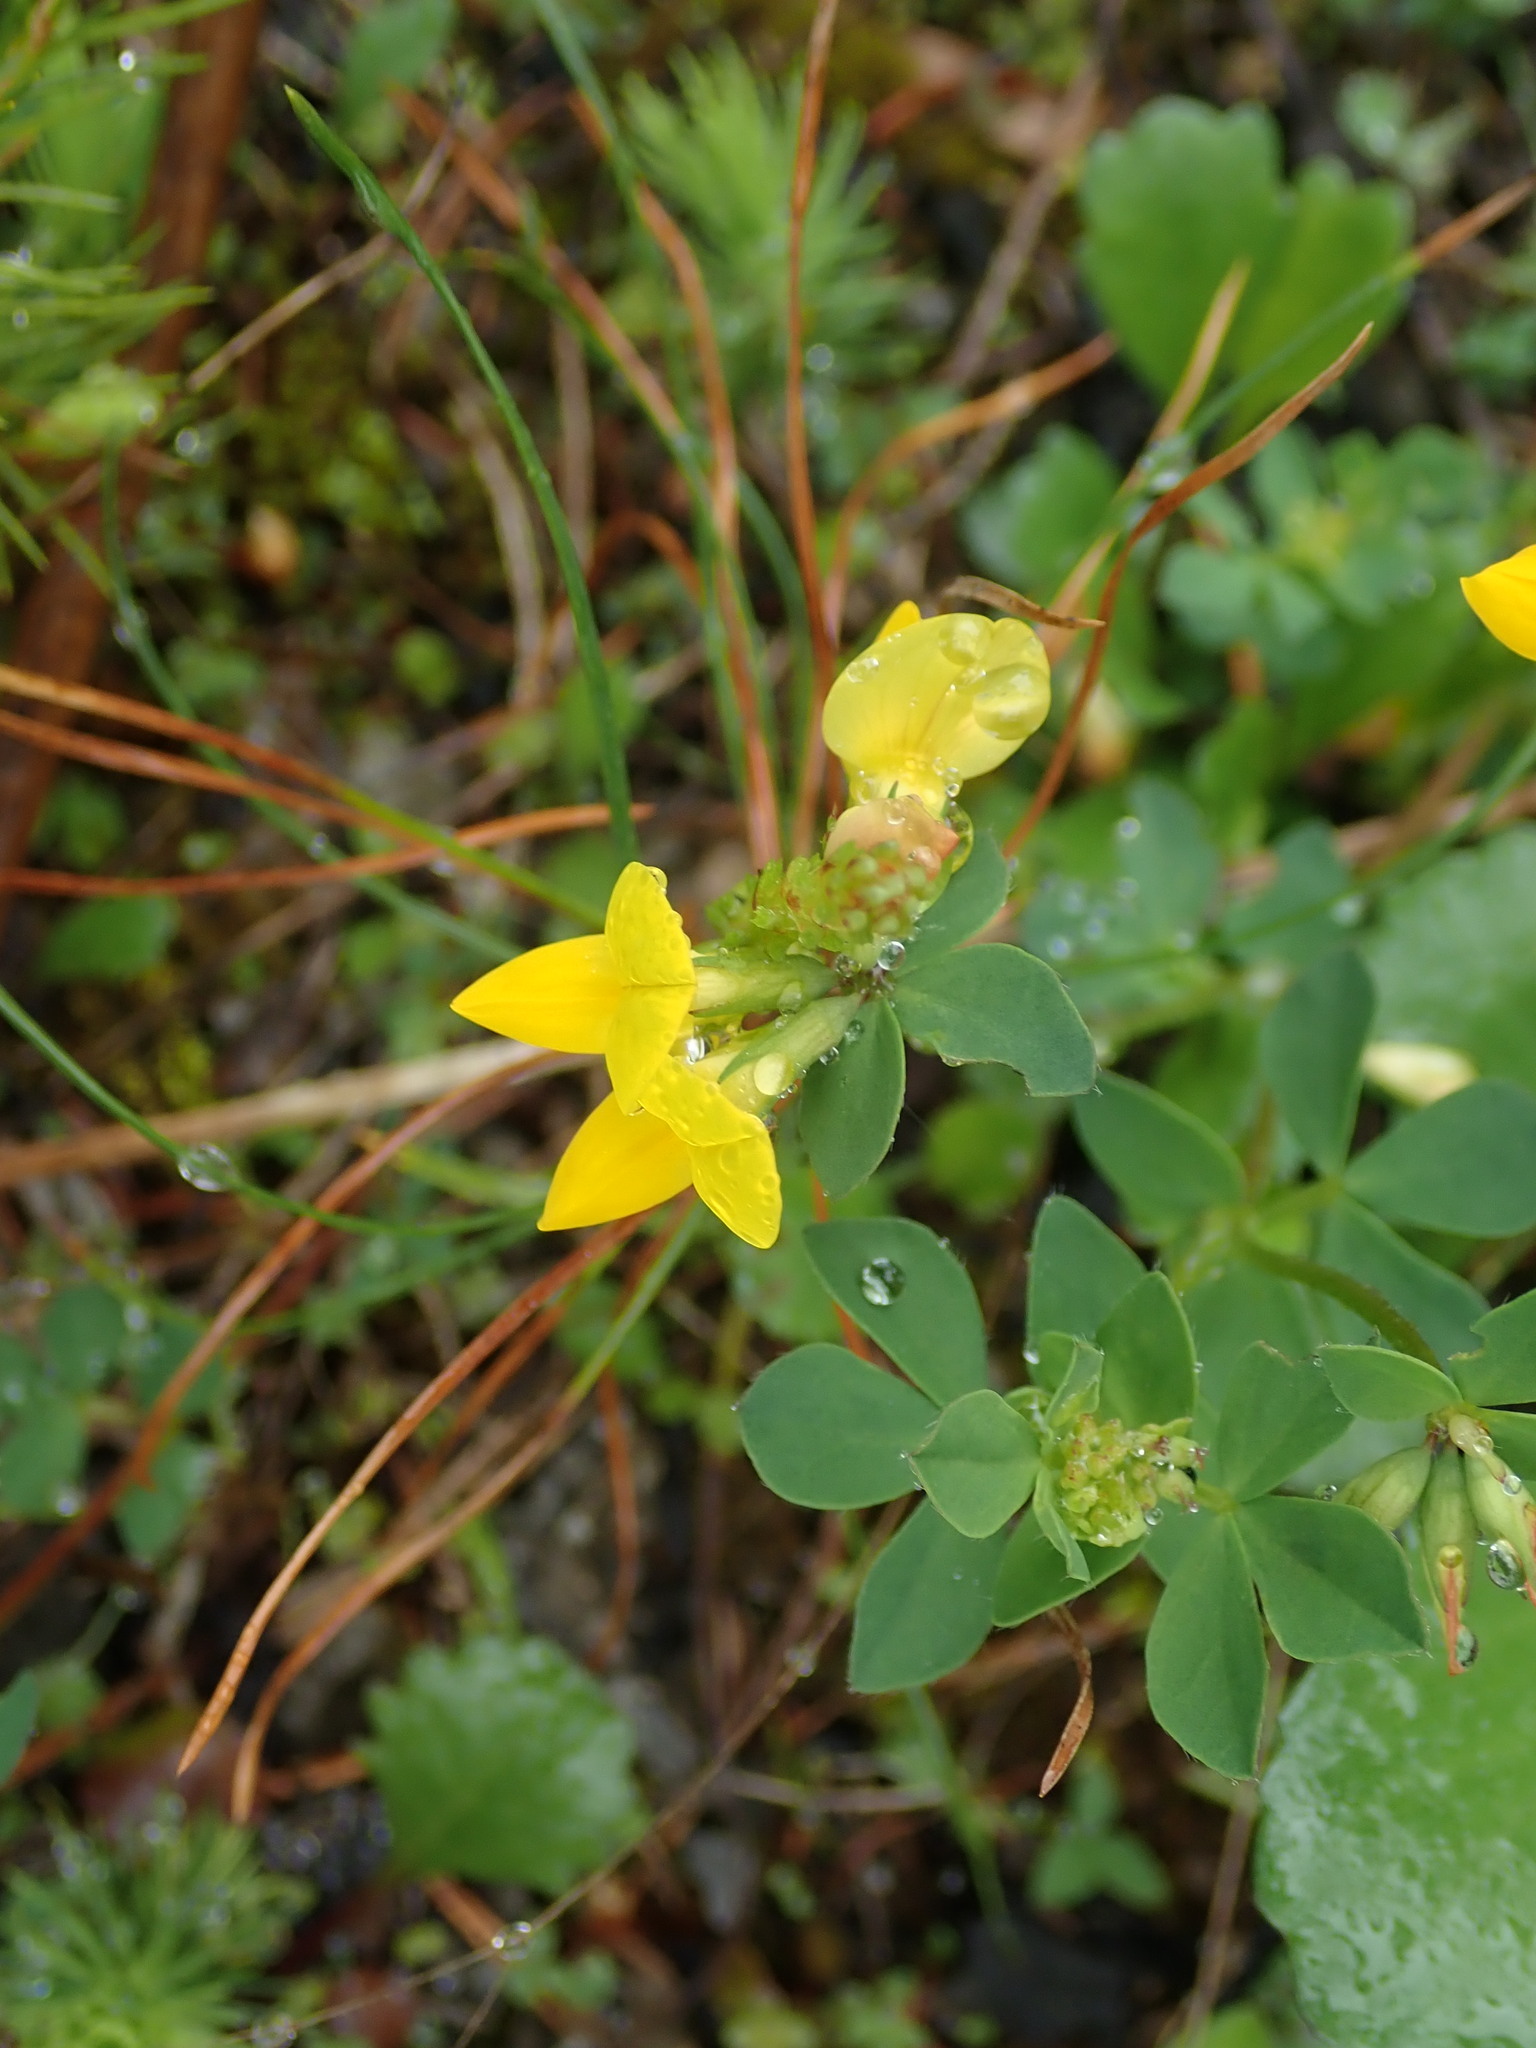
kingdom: Plantae
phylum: Tracheophyta
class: Magnoliopsida
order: Fabales
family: Fabaceae
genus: Lotus
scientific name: Lotus corniculatus
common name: Common bird's-foot-trefoil
